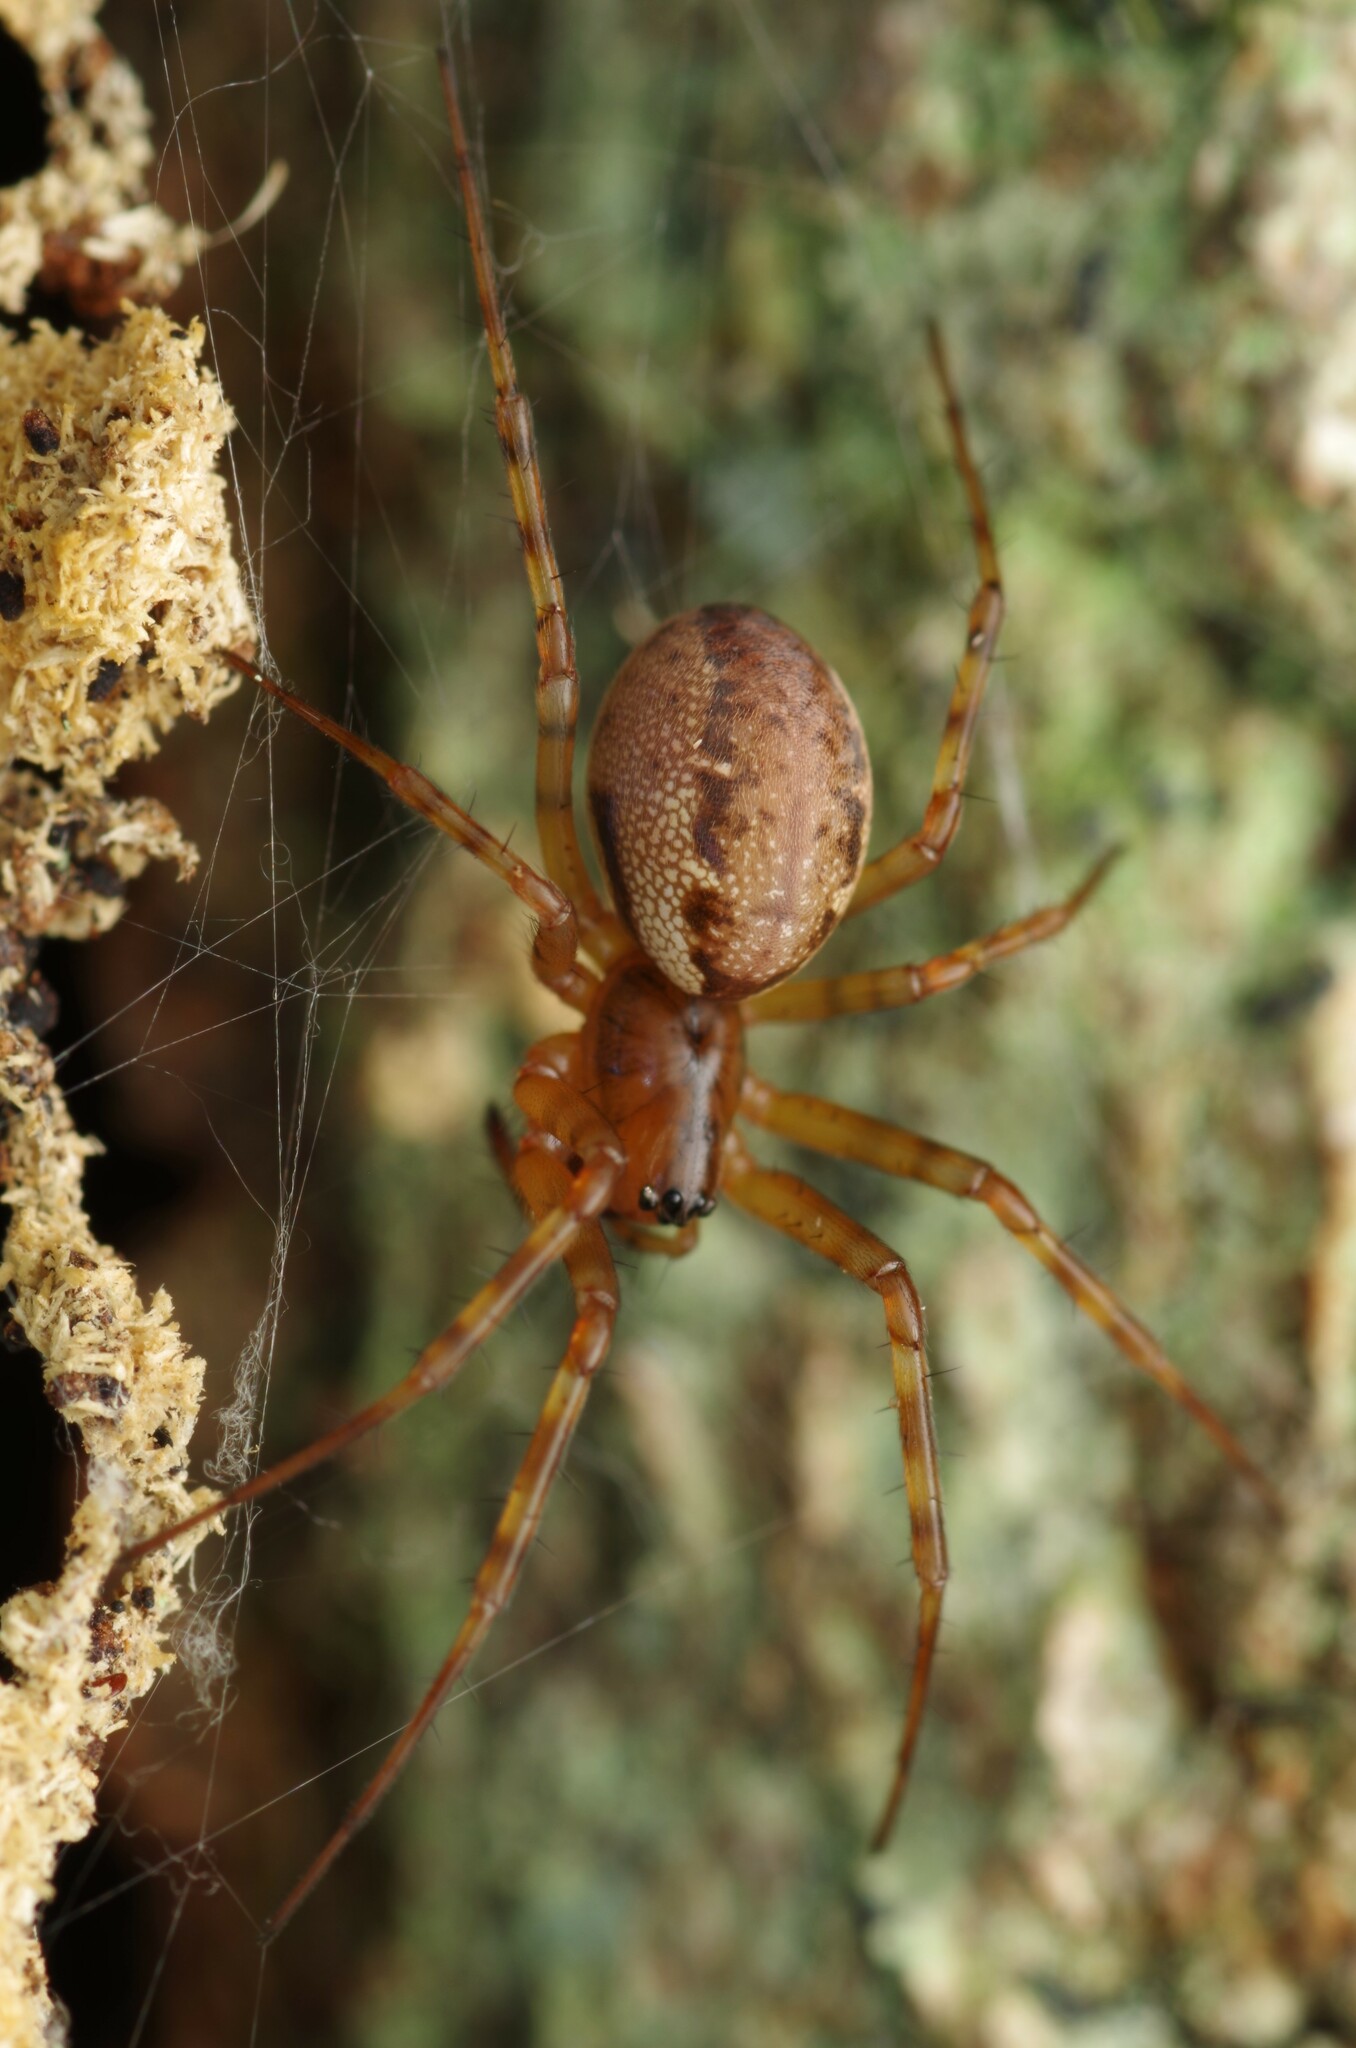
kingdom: Animalia
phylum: Arthropoda
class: Arachnida
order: Araneae
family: Linyphiidae
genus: Neriene
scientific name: Neriene montana
